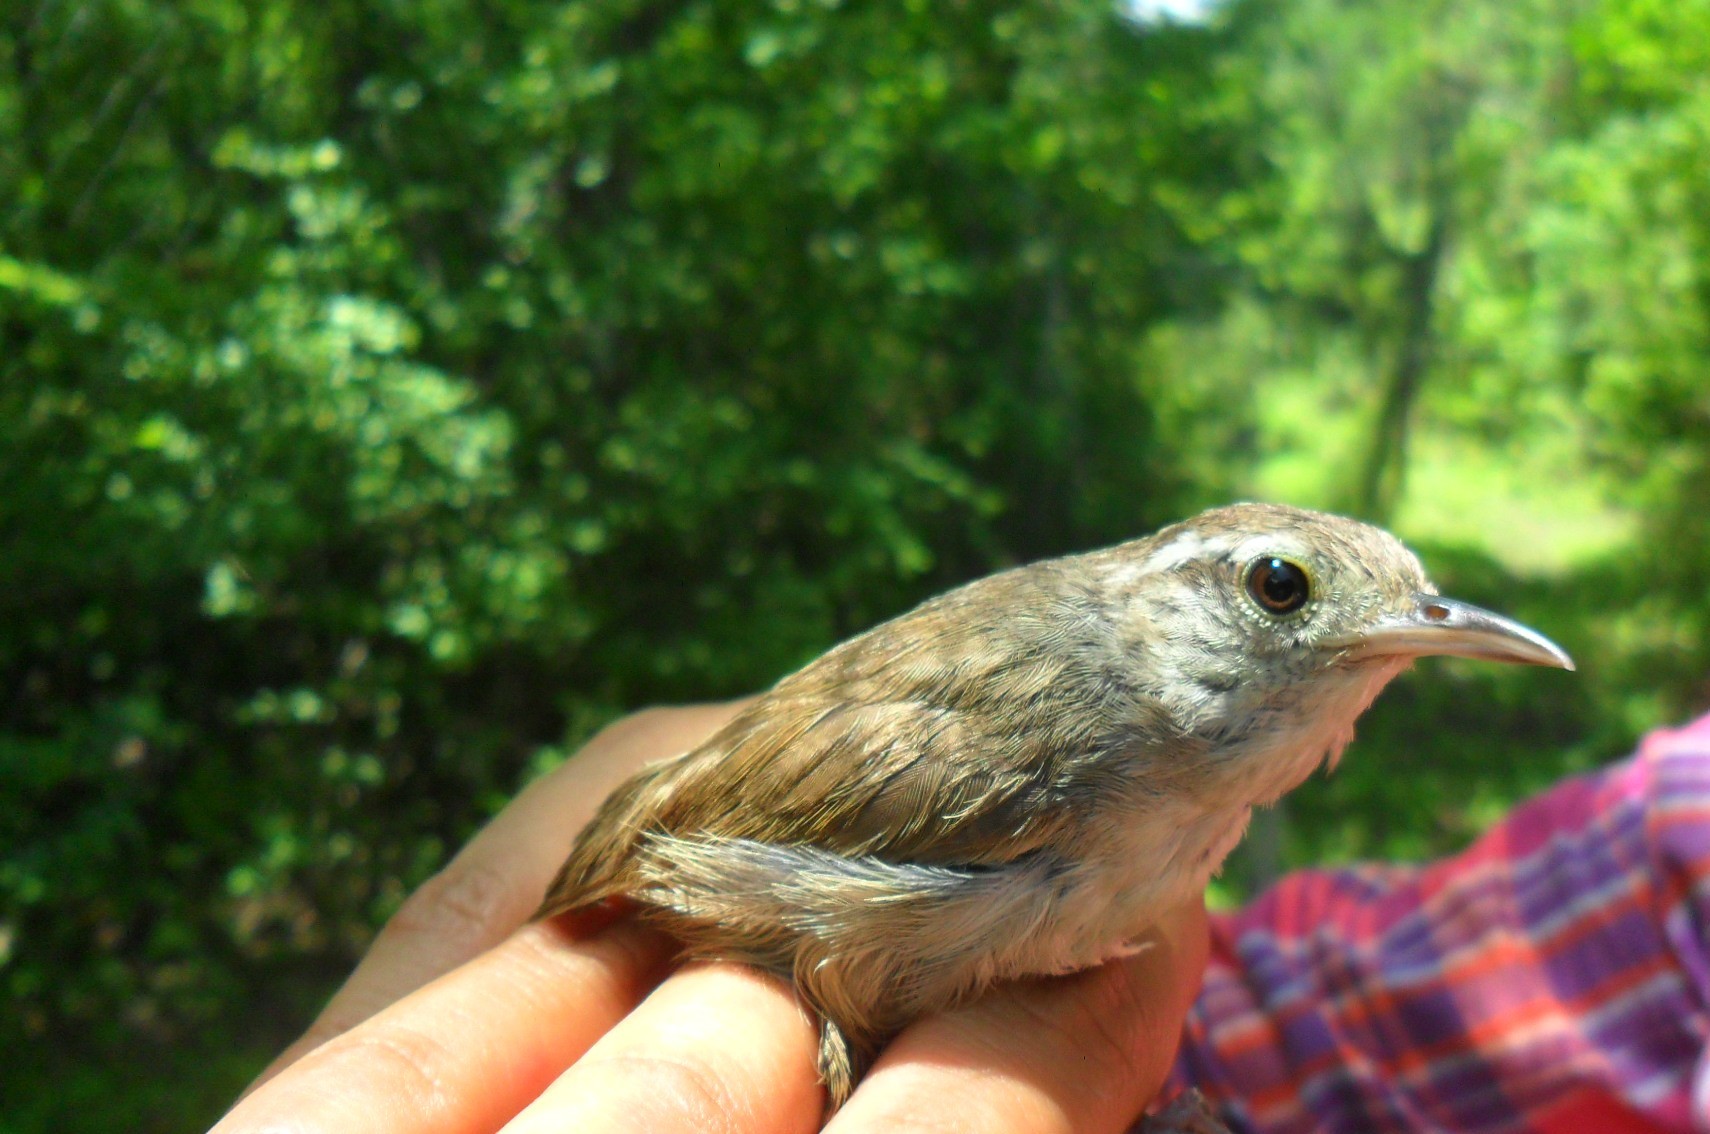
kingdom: Animalia
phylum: Chordata
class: Aves
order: Passeriformes
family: Troglodytidae
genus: Uropsila
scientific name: Uropsila leucogastra
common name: White-bellied wren
